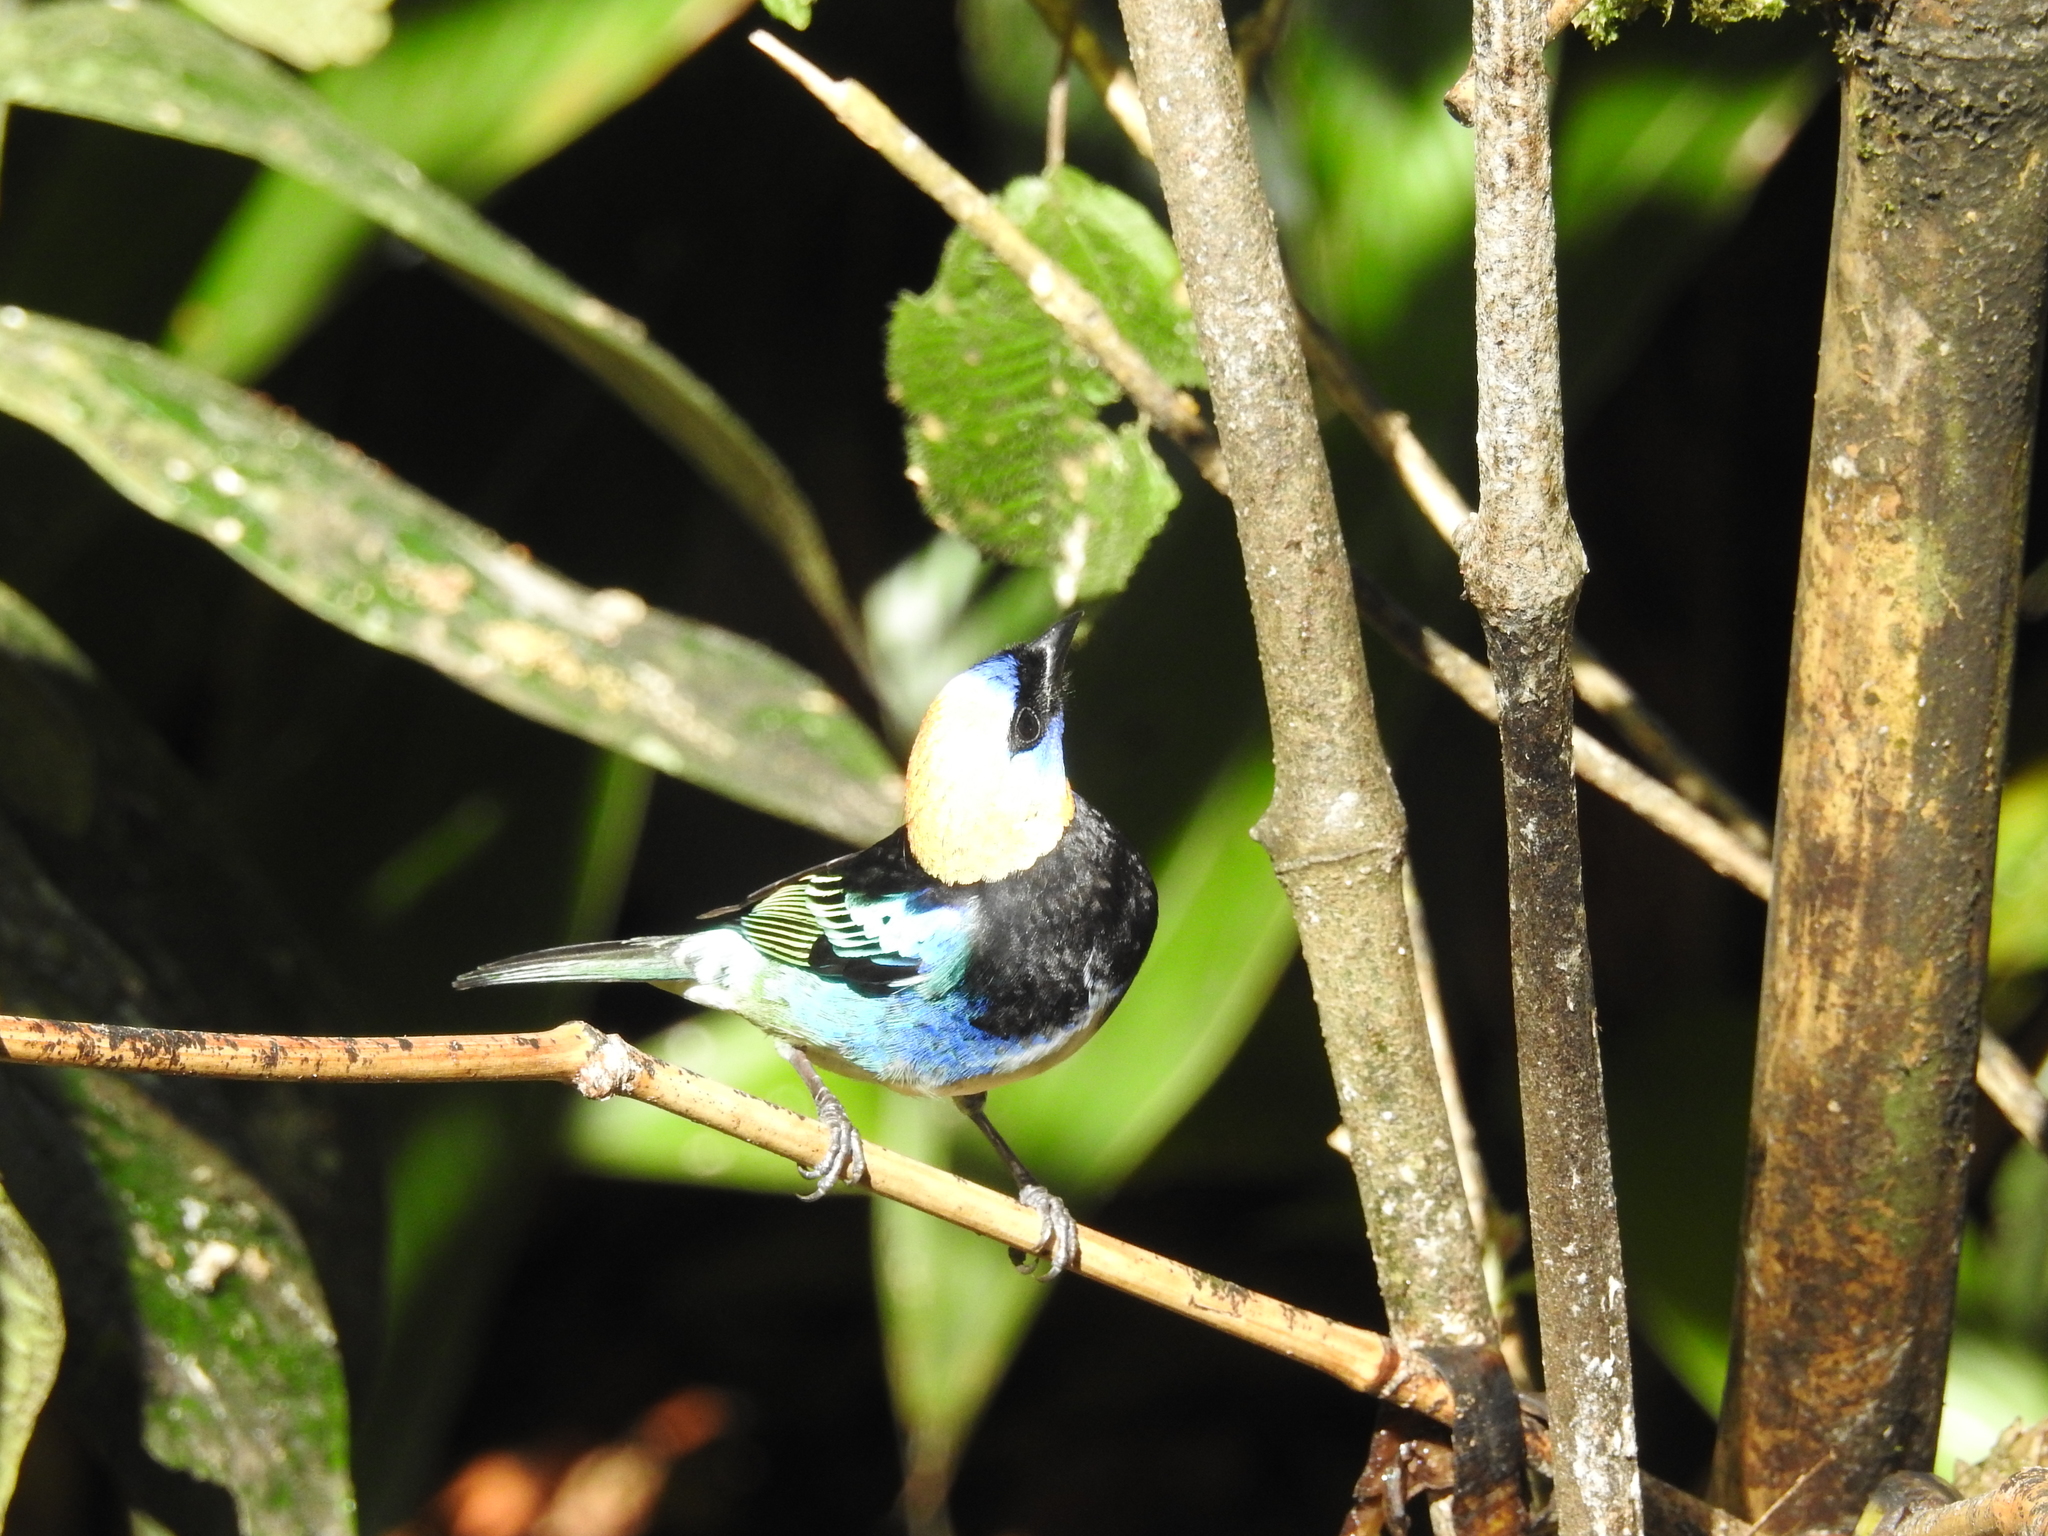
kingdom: Animalia
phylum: Chordata
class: Aves
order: Passeriformes
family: Thraupidae
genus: Stilpnia
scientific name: Stilpnia larvata
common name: Golden-hooded tanager
